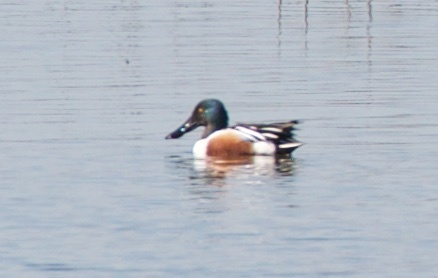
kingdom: Animalia
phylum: Chordata
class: Aves
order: Anseriformes
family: Anatidae
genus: Spatula
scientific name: Spatula clypeata
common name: Northern shoveler
